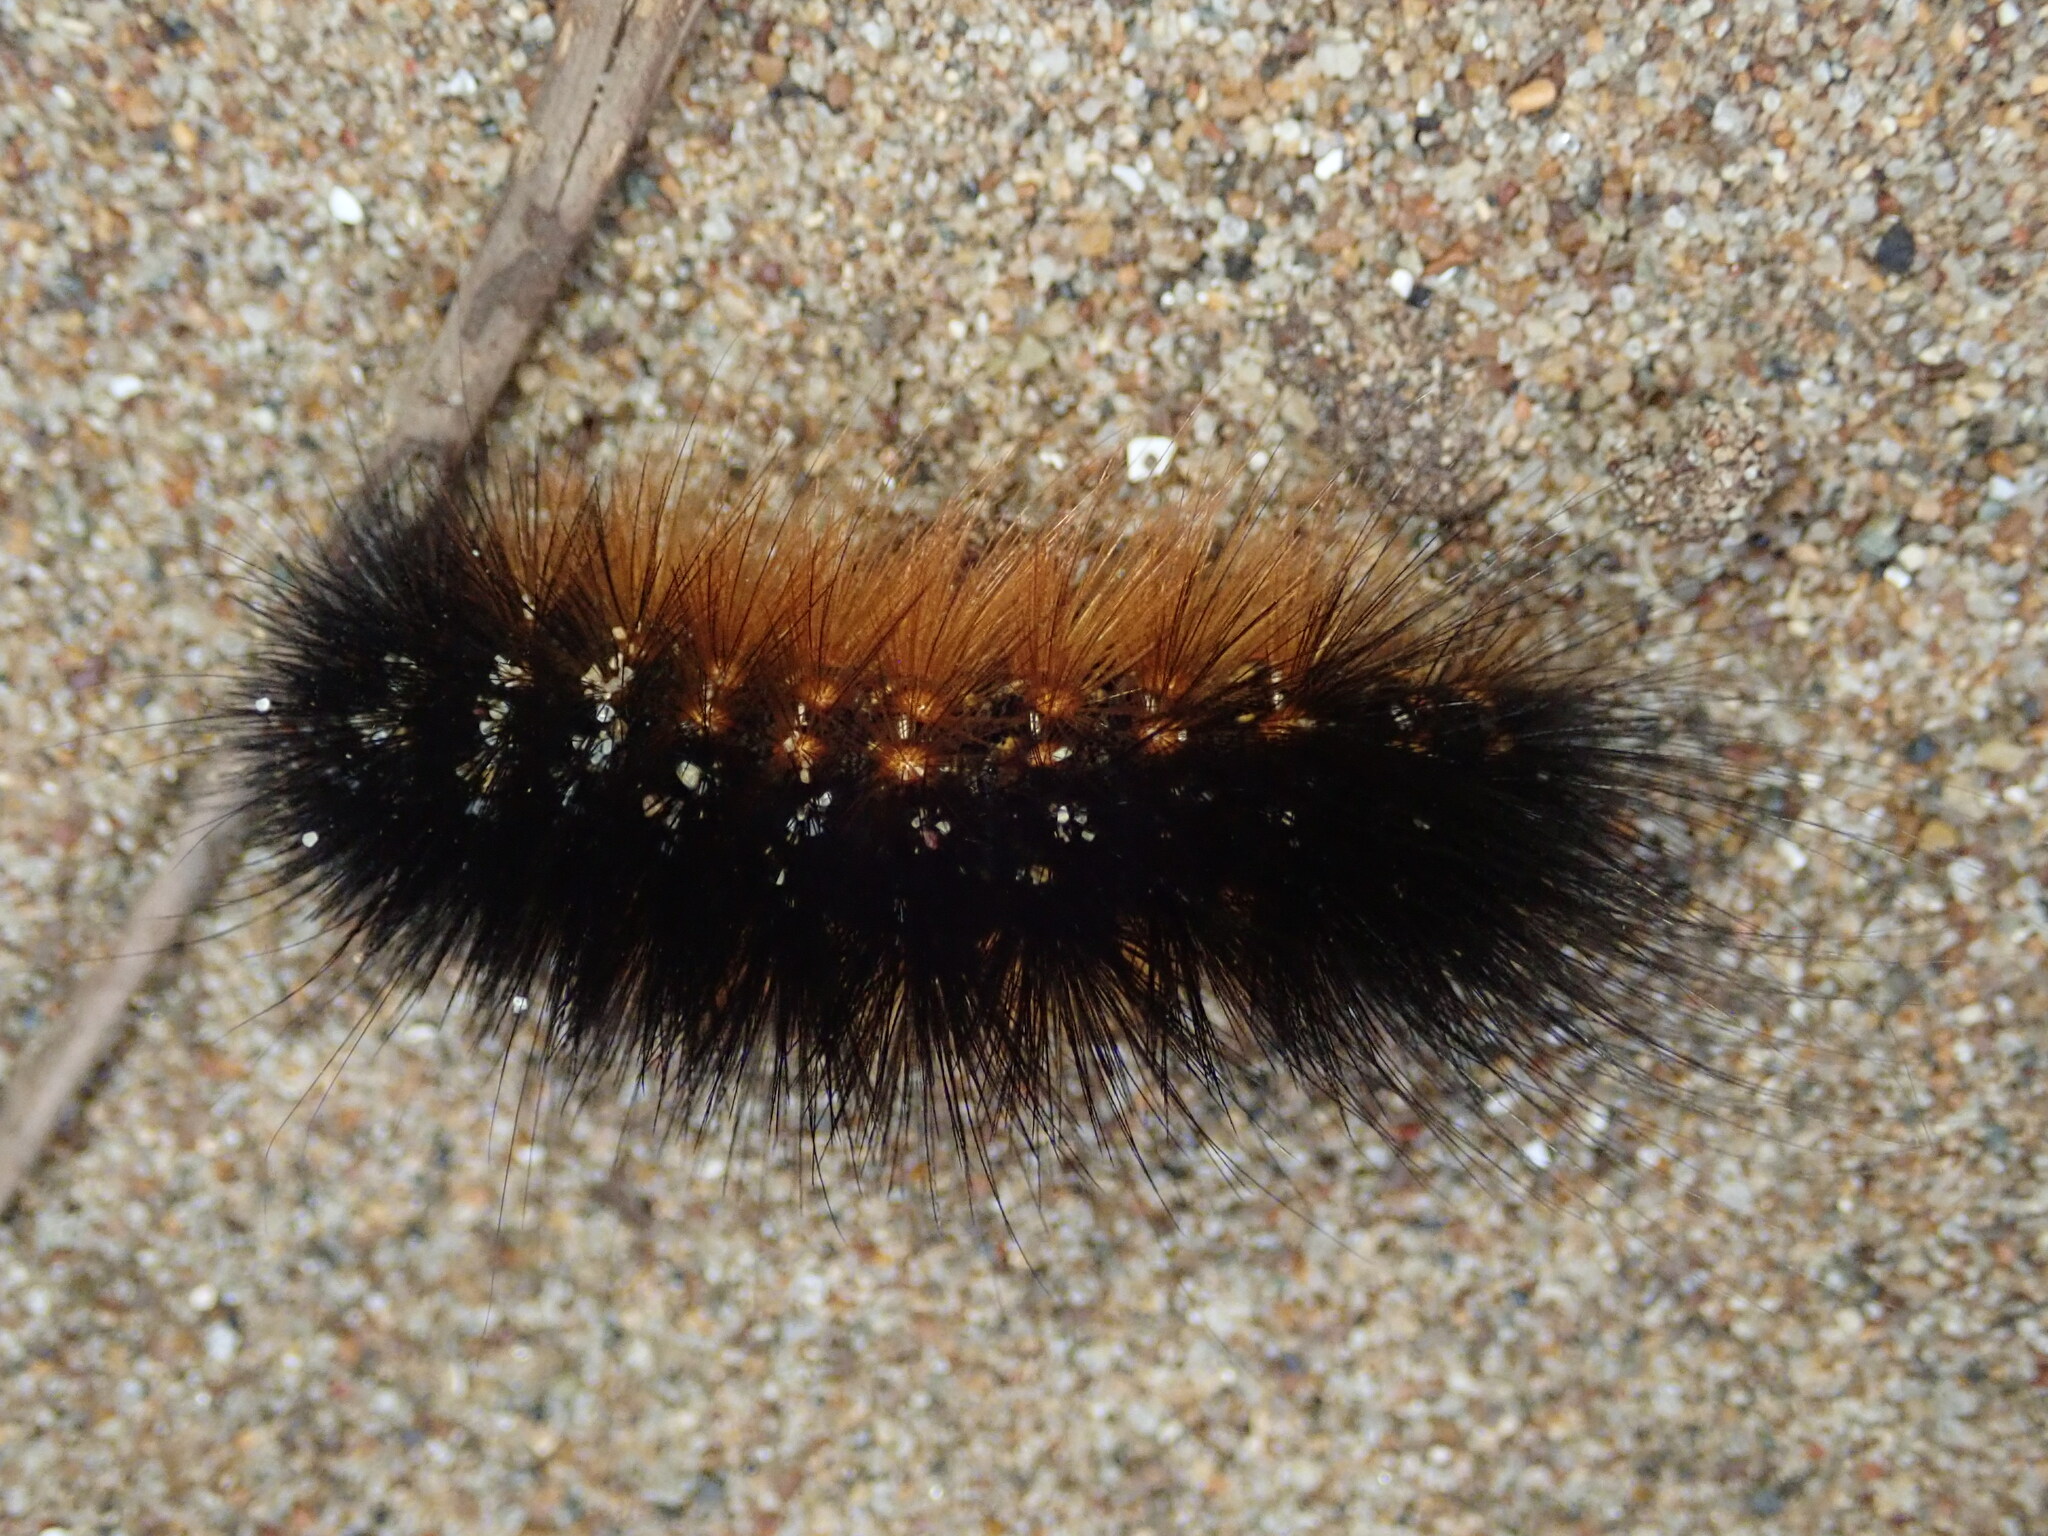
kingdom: Animalia
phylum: Arthropoda
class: Insecta
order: Lepidoptera
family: Erebidae
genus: Estigmene
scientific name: Estigmene acrea
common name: Salt marsh moth
